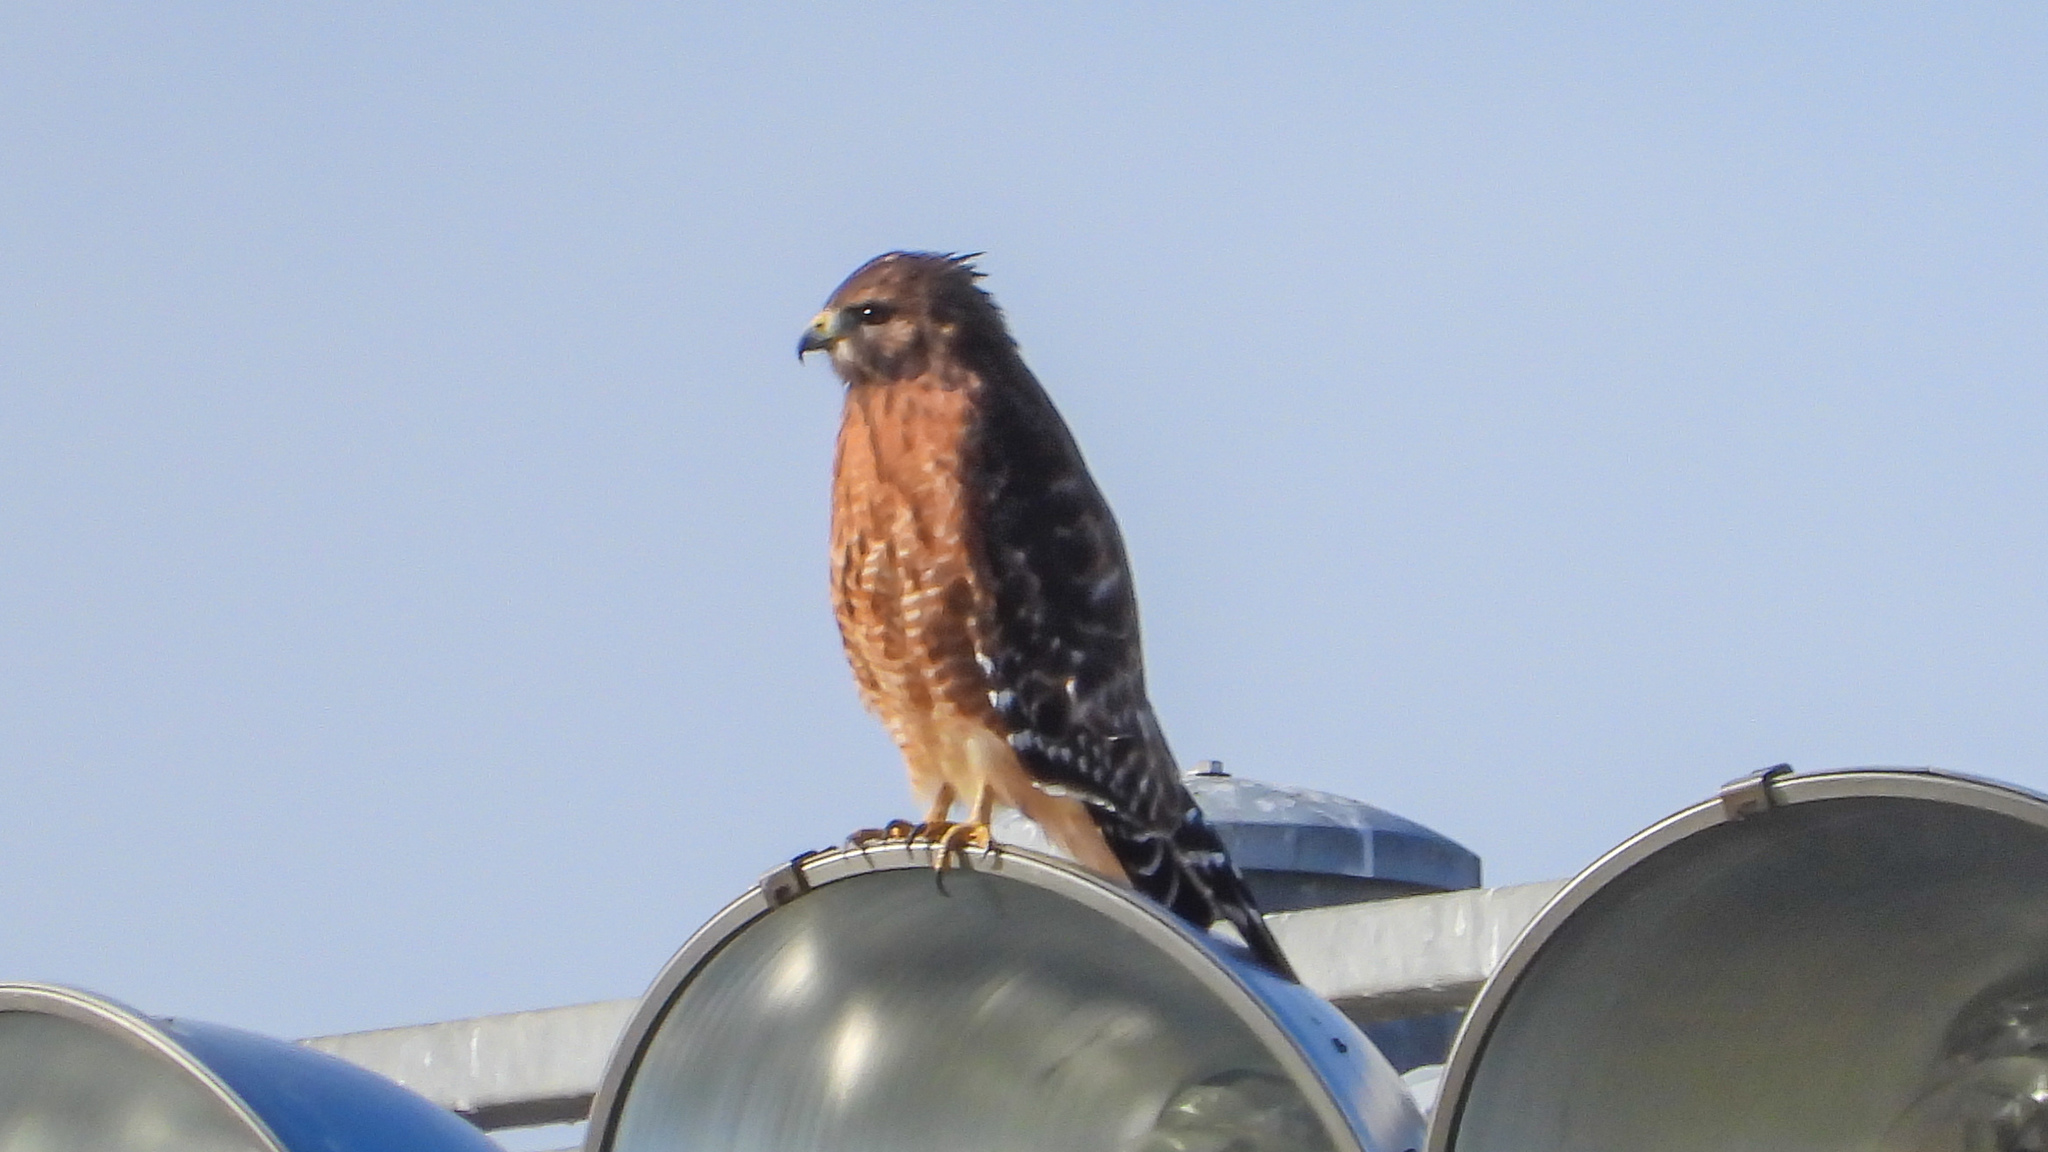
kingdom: Animalia
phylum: Chordata
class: Aves
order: Accipitriformes
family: Accipitridae
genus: Buteo
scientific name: Buteo lineatus
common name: Red-shouldered hawk
